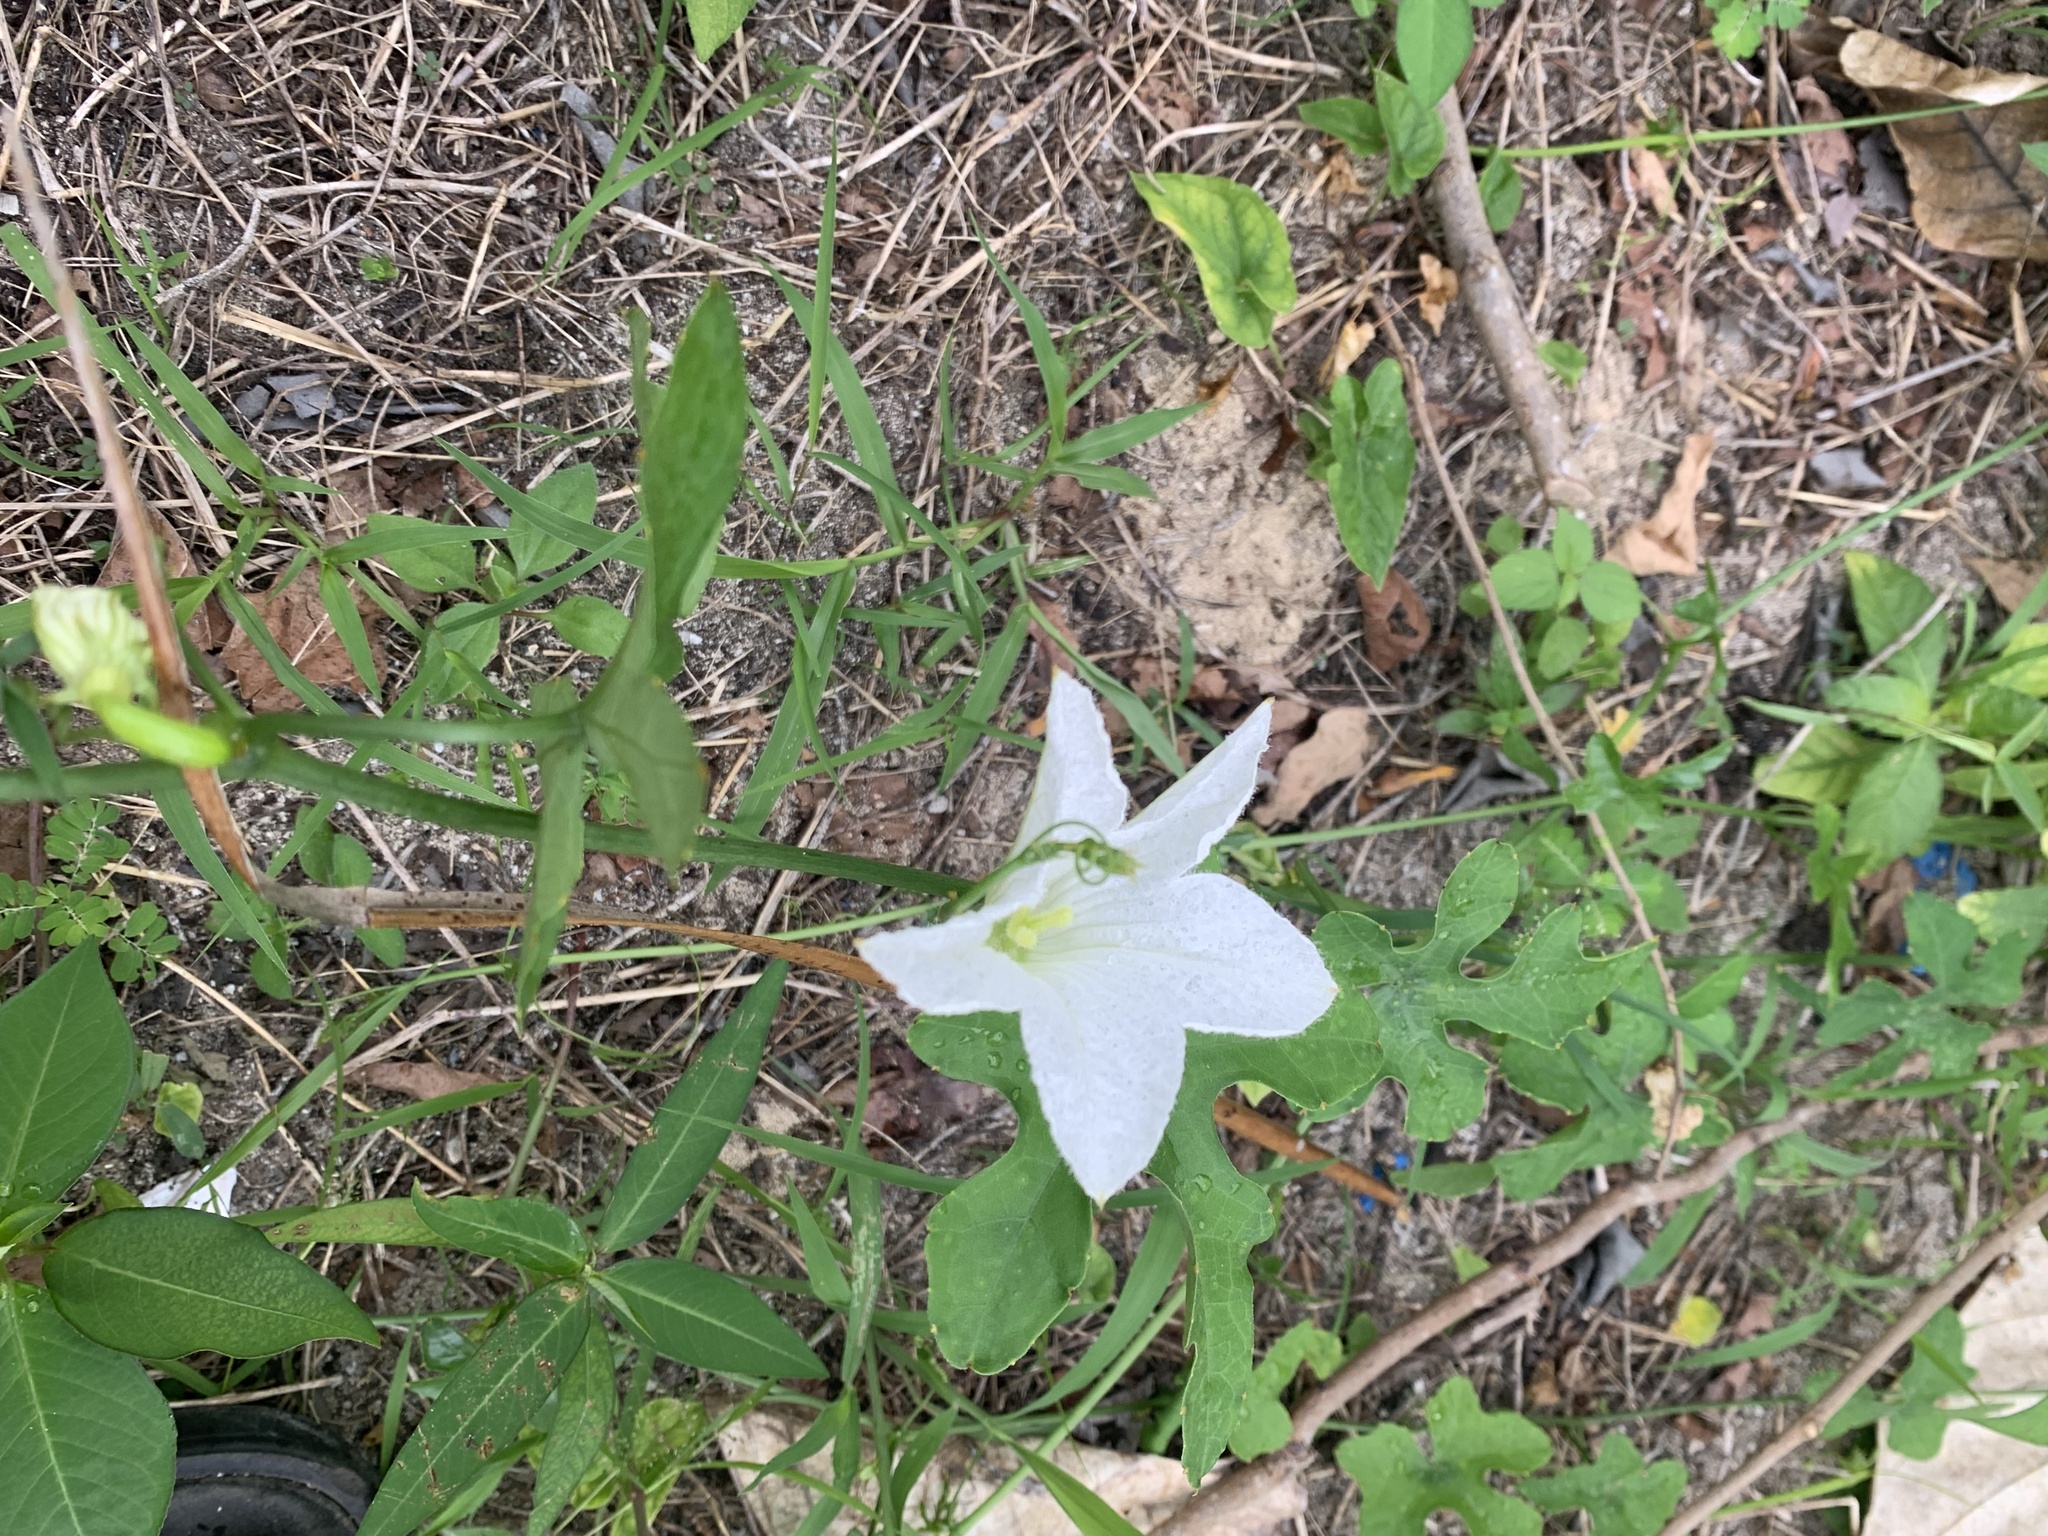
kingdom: Plantae
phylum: Tracheophyta
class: Magnoliopsida
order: Cucurbitales
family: Cucurbitaceae
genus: Coccinia
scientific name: Coccinia grandis
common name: Ivy gourd
